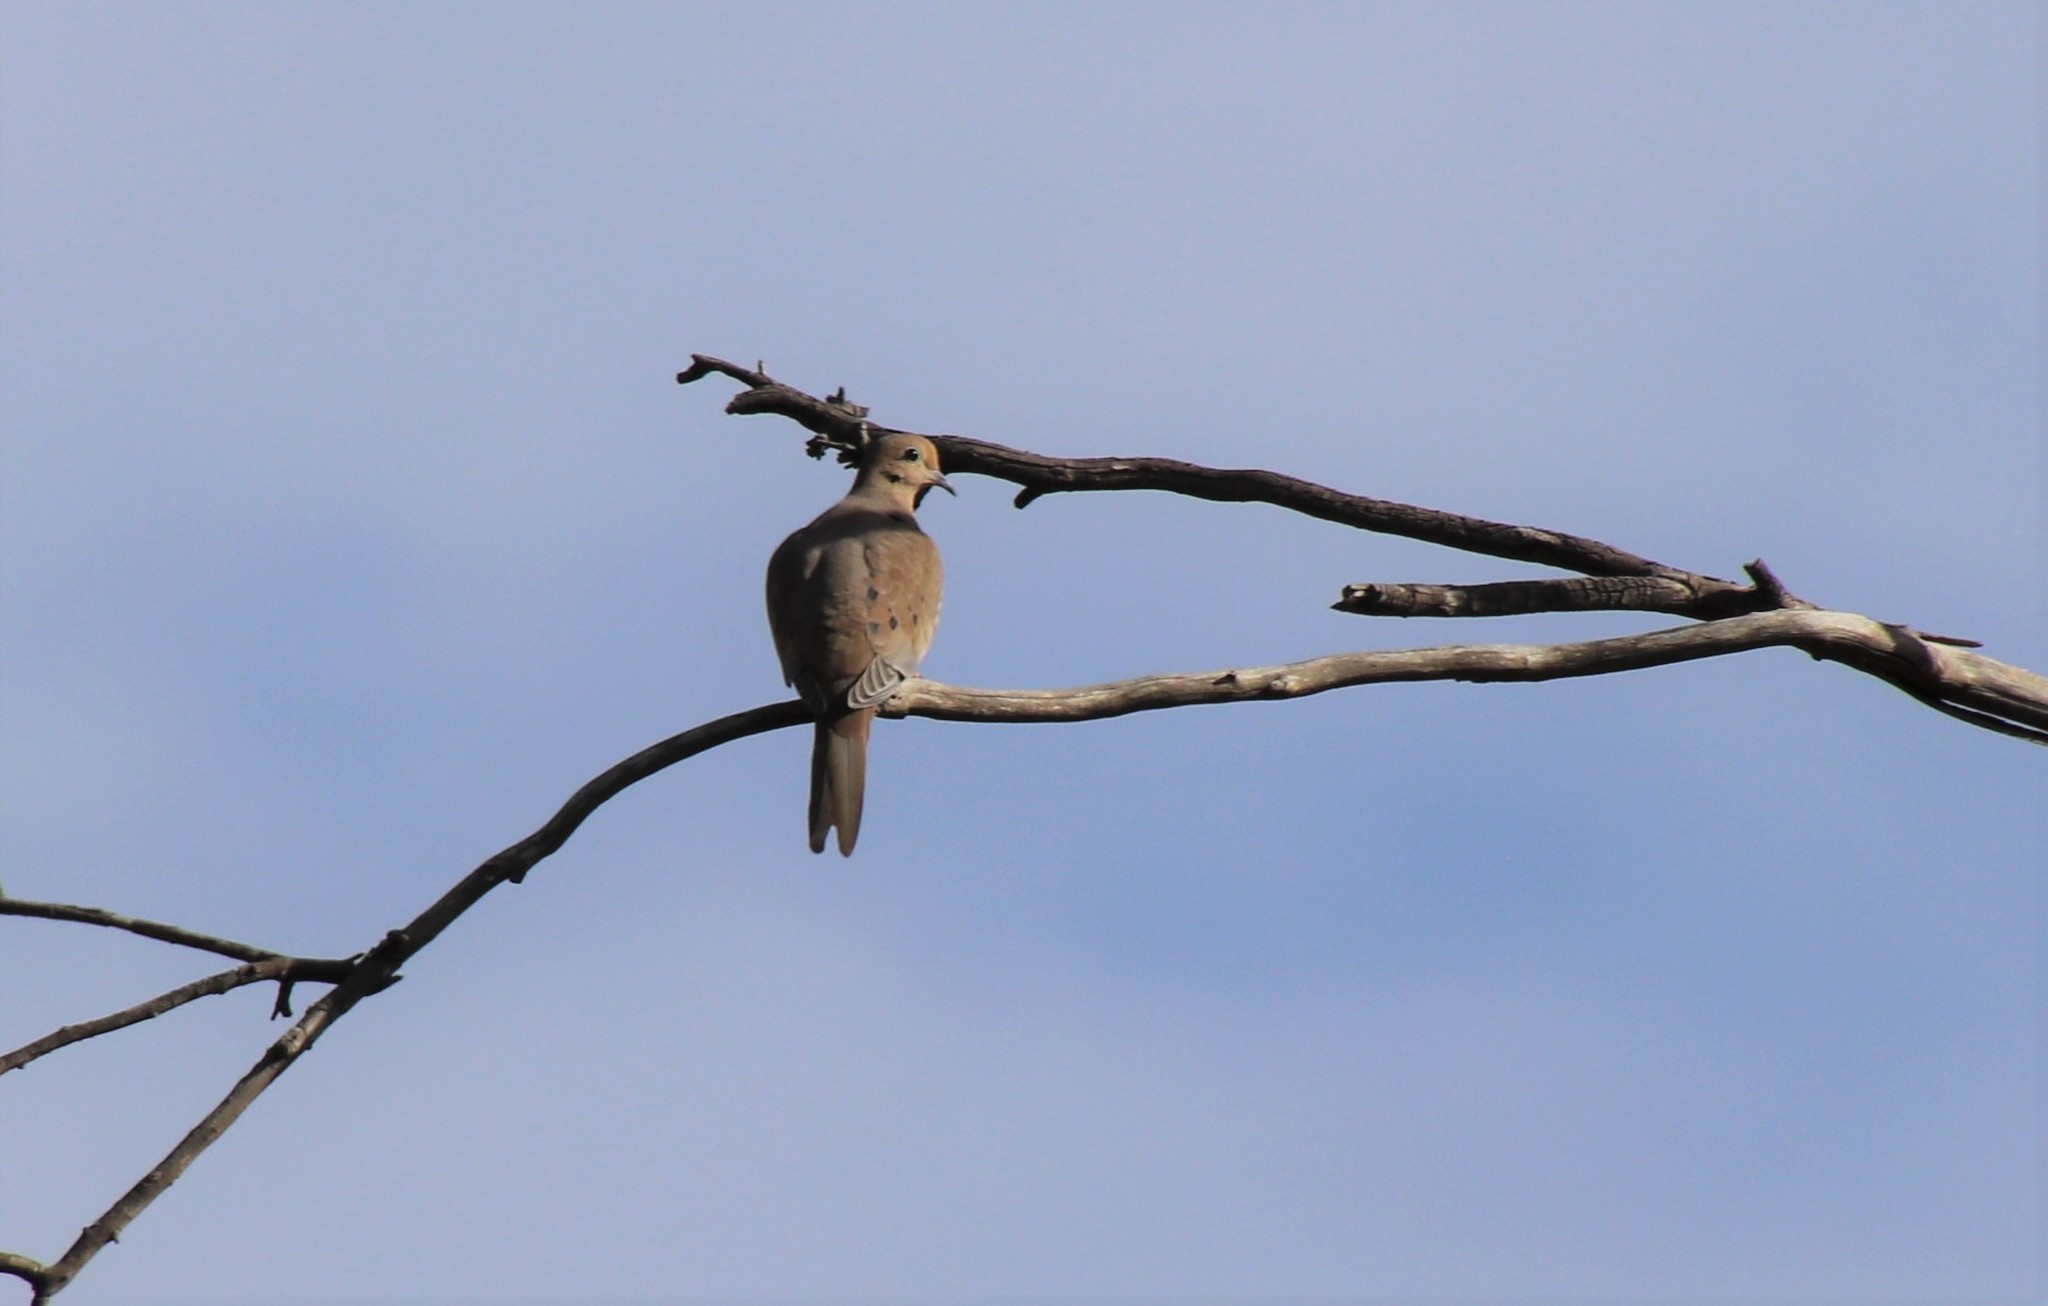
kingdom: Animalia
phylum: Chordata
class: Aves
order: Columbiformes
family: Columbidae
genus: Zenaida
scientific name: Zenaida macroura
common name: Mourning dove
